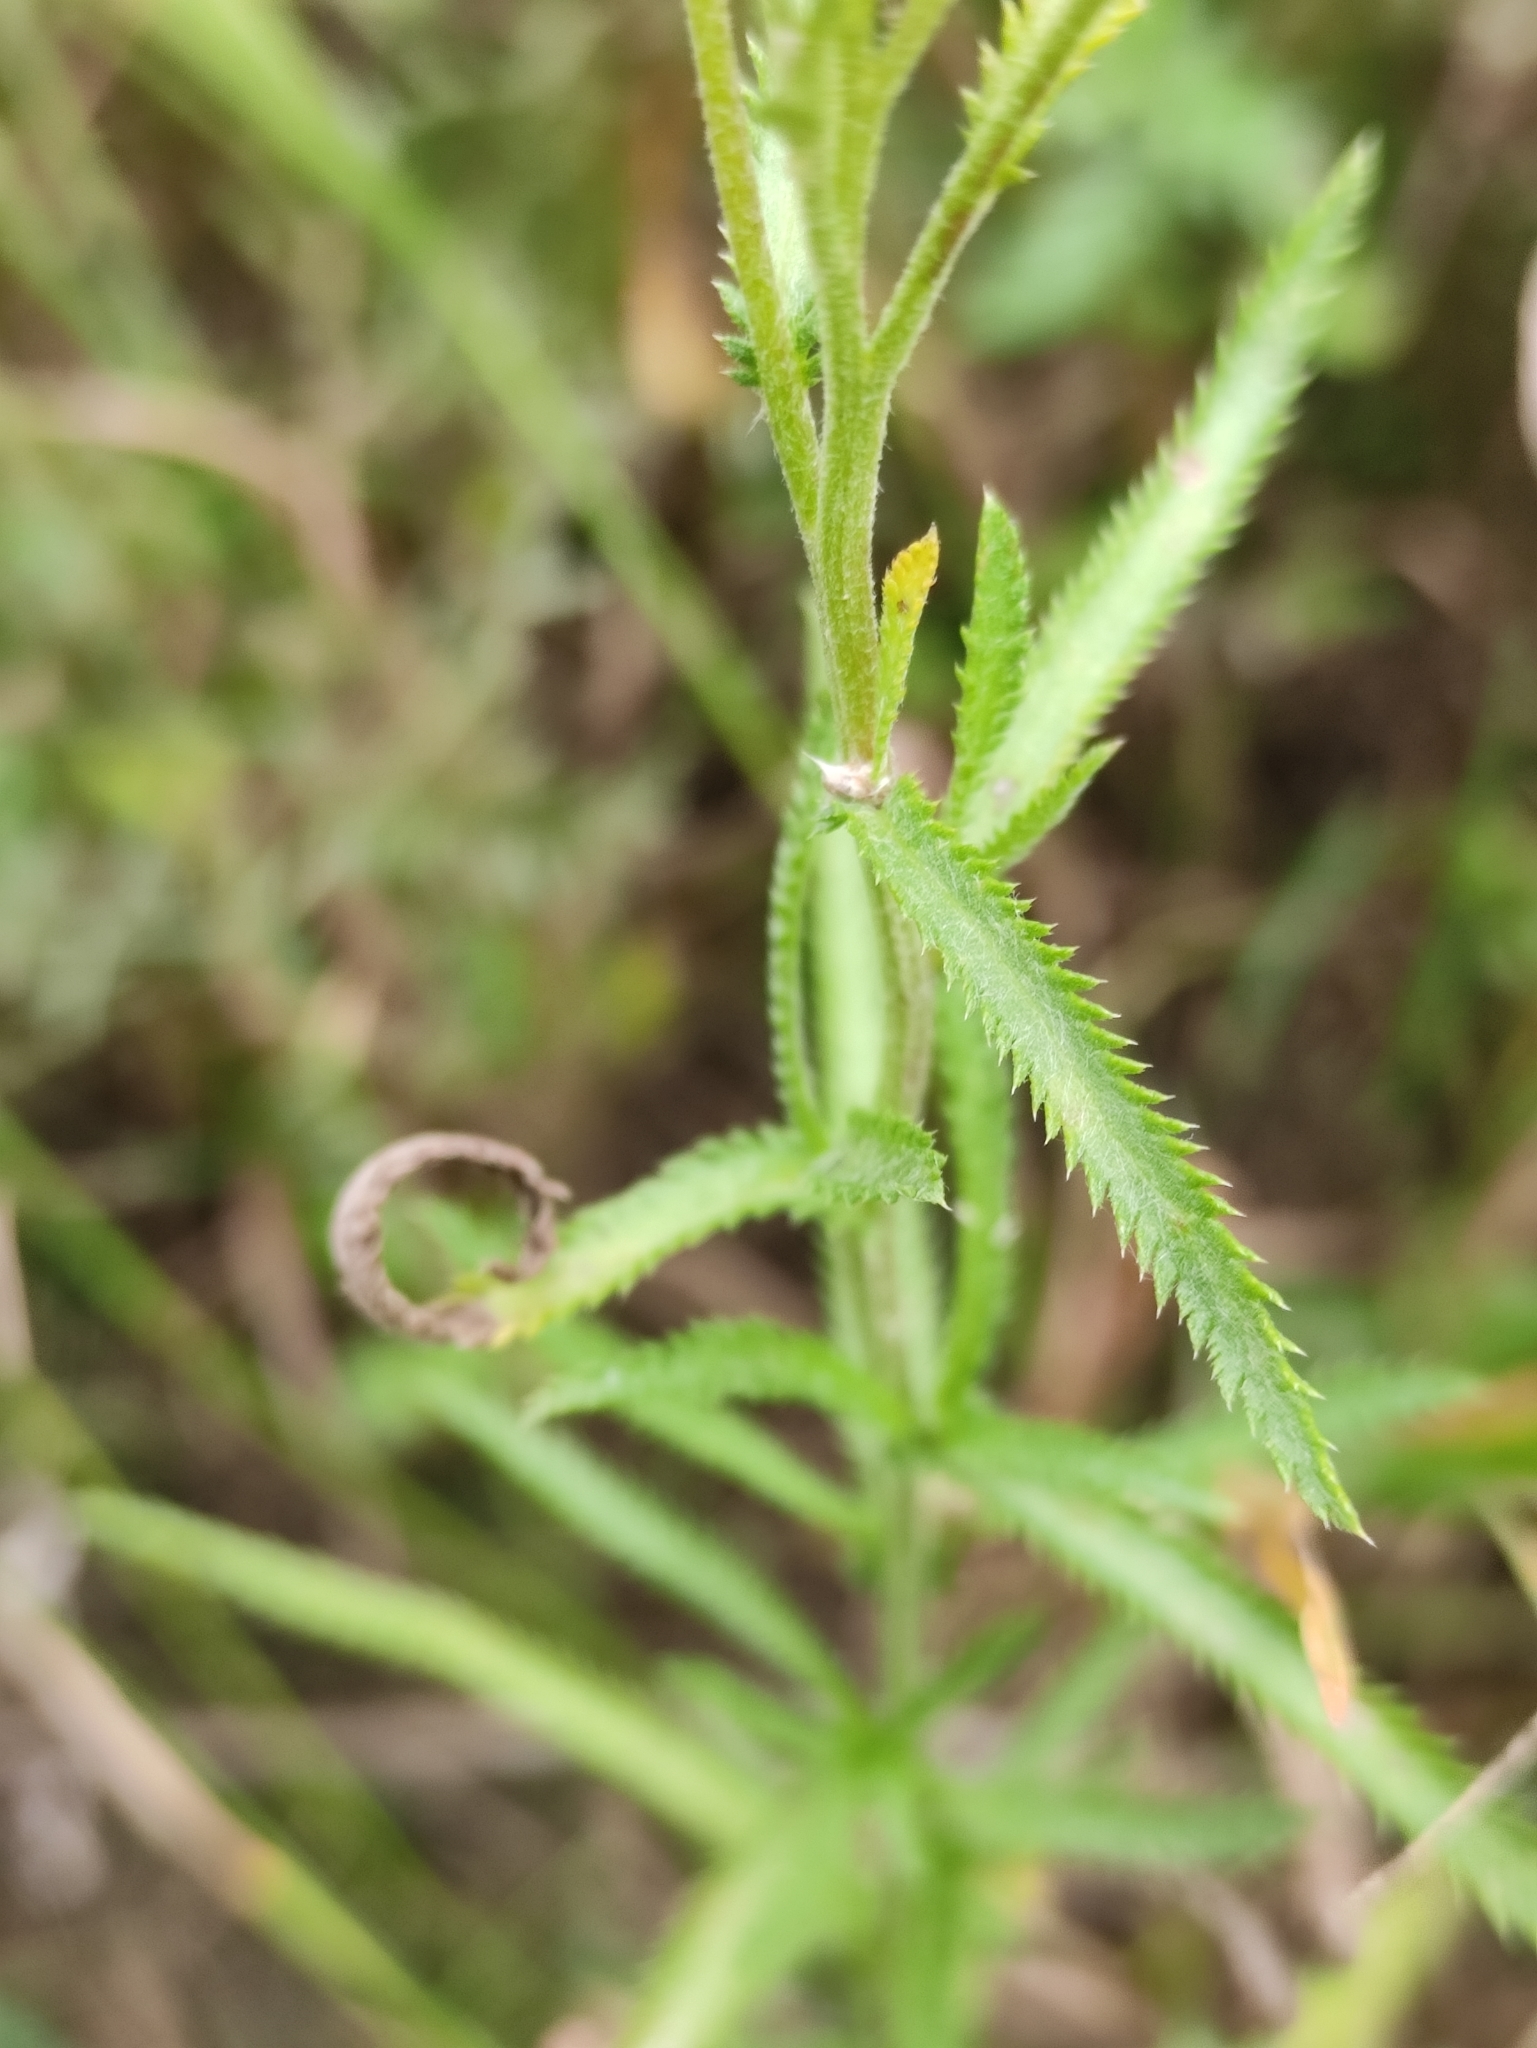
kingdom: Plantae
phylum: Tracheophyta
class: Magnoliopsida
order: Asterales
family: Asteraceae
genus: Achillea
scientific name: Achillea alpina
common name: Siberian yarrow
